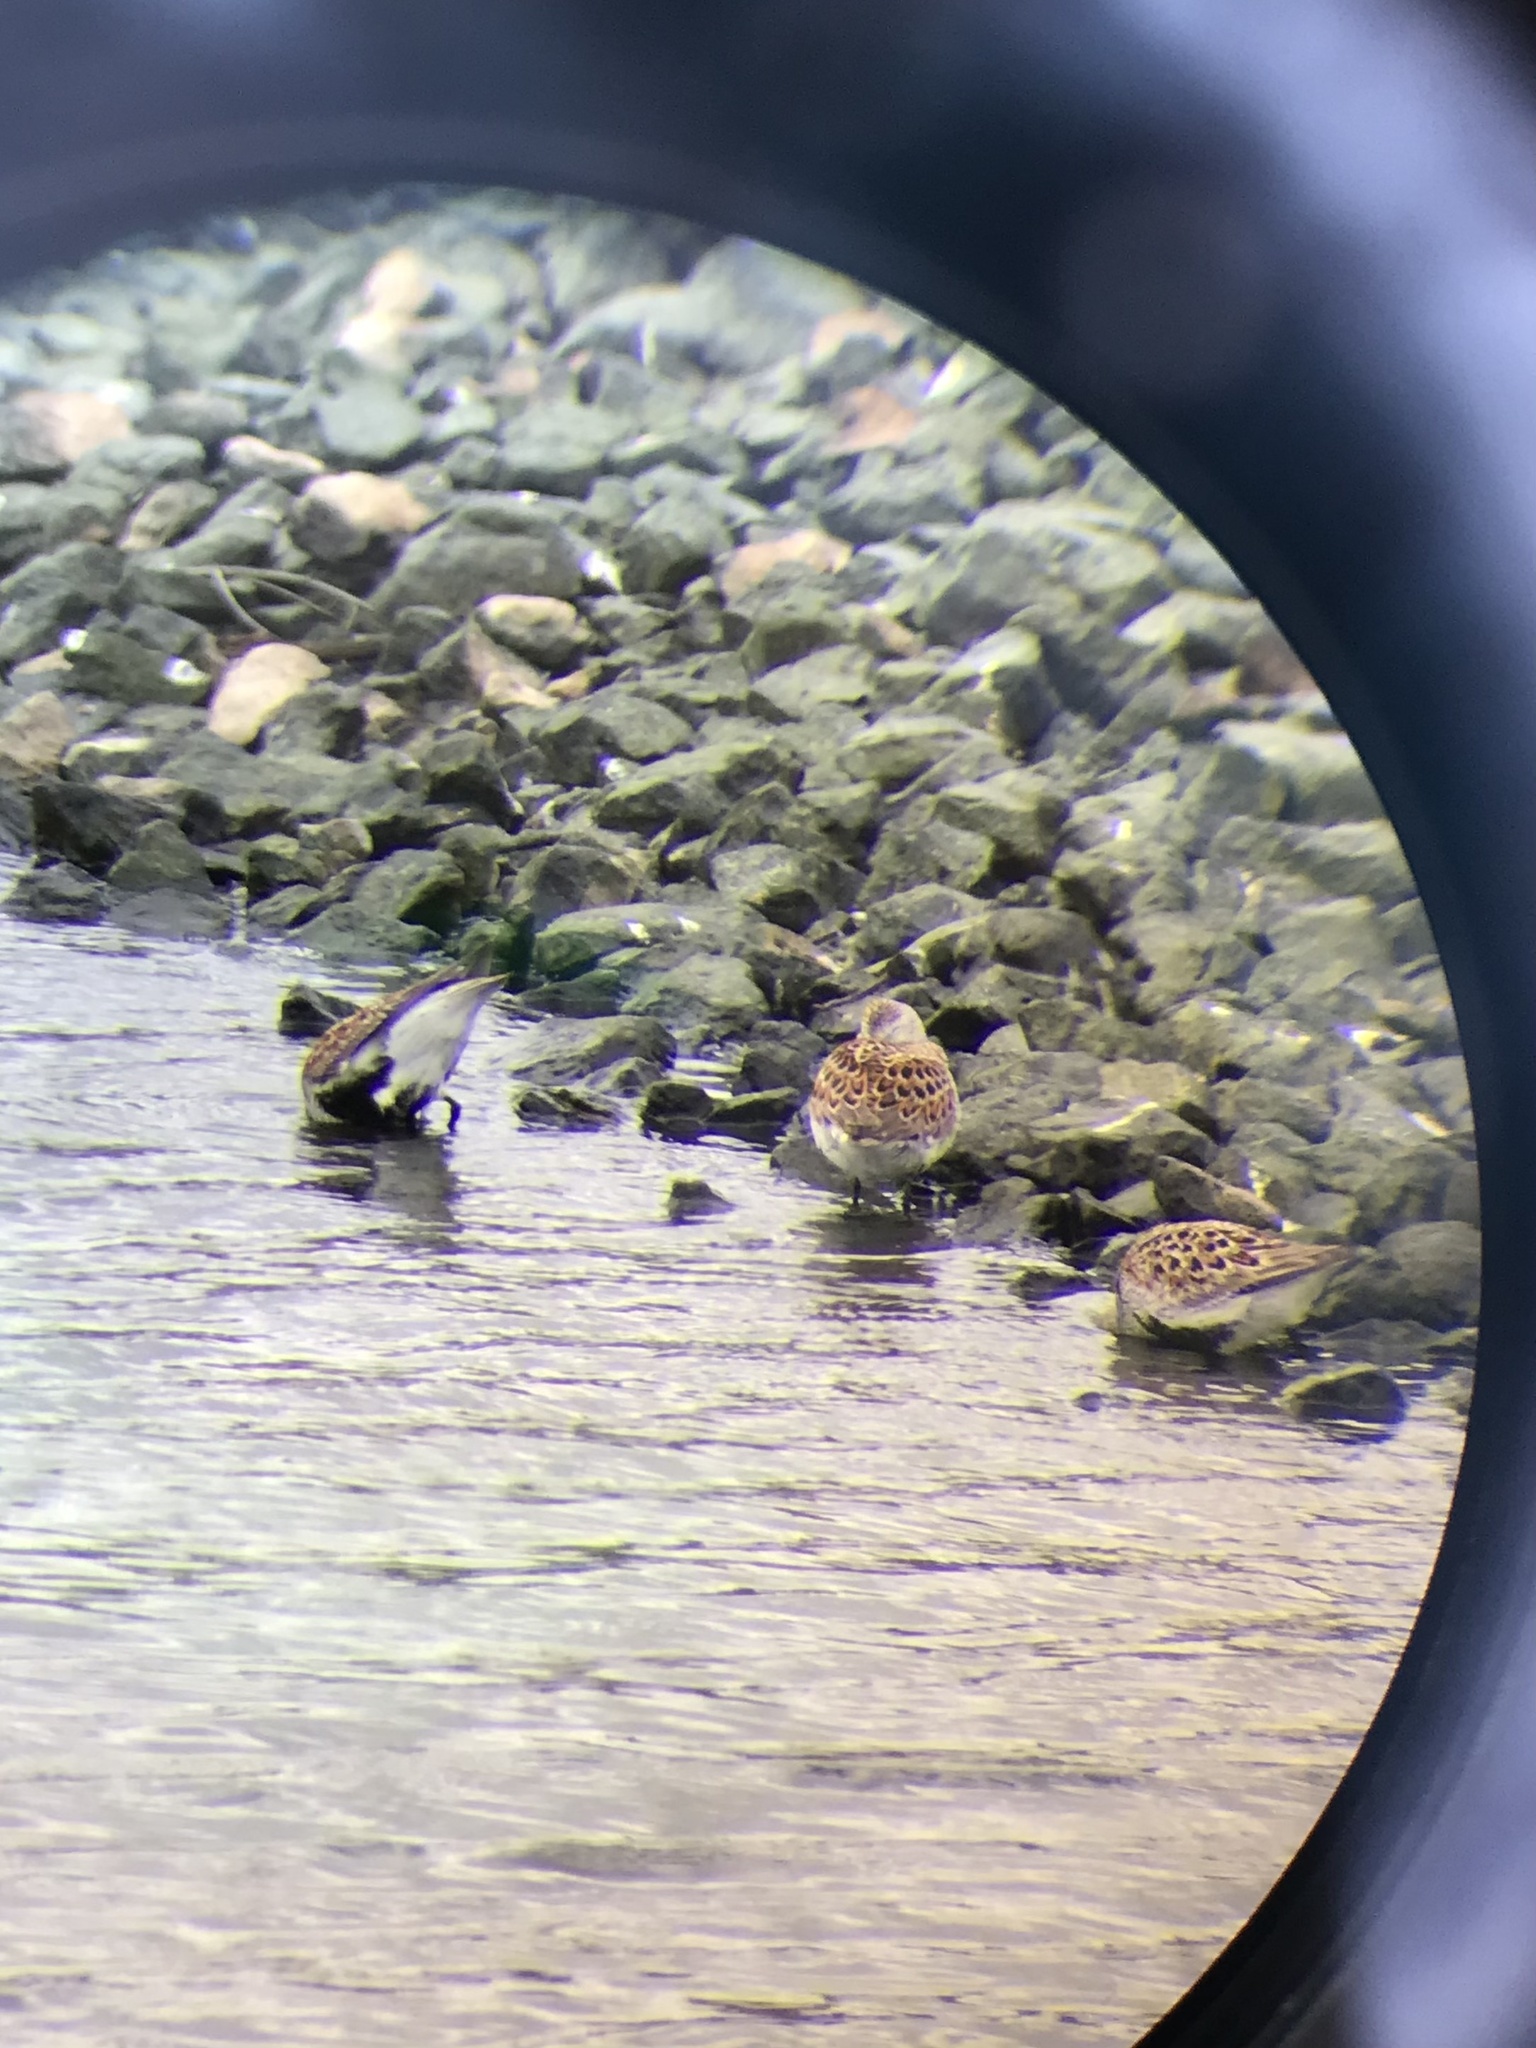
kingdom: Animalia
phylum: Chordata
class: Aves
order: Charadriiformes
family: Scolopacidae
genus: Calidris
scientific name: Calidris alpina
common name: Dunlin
